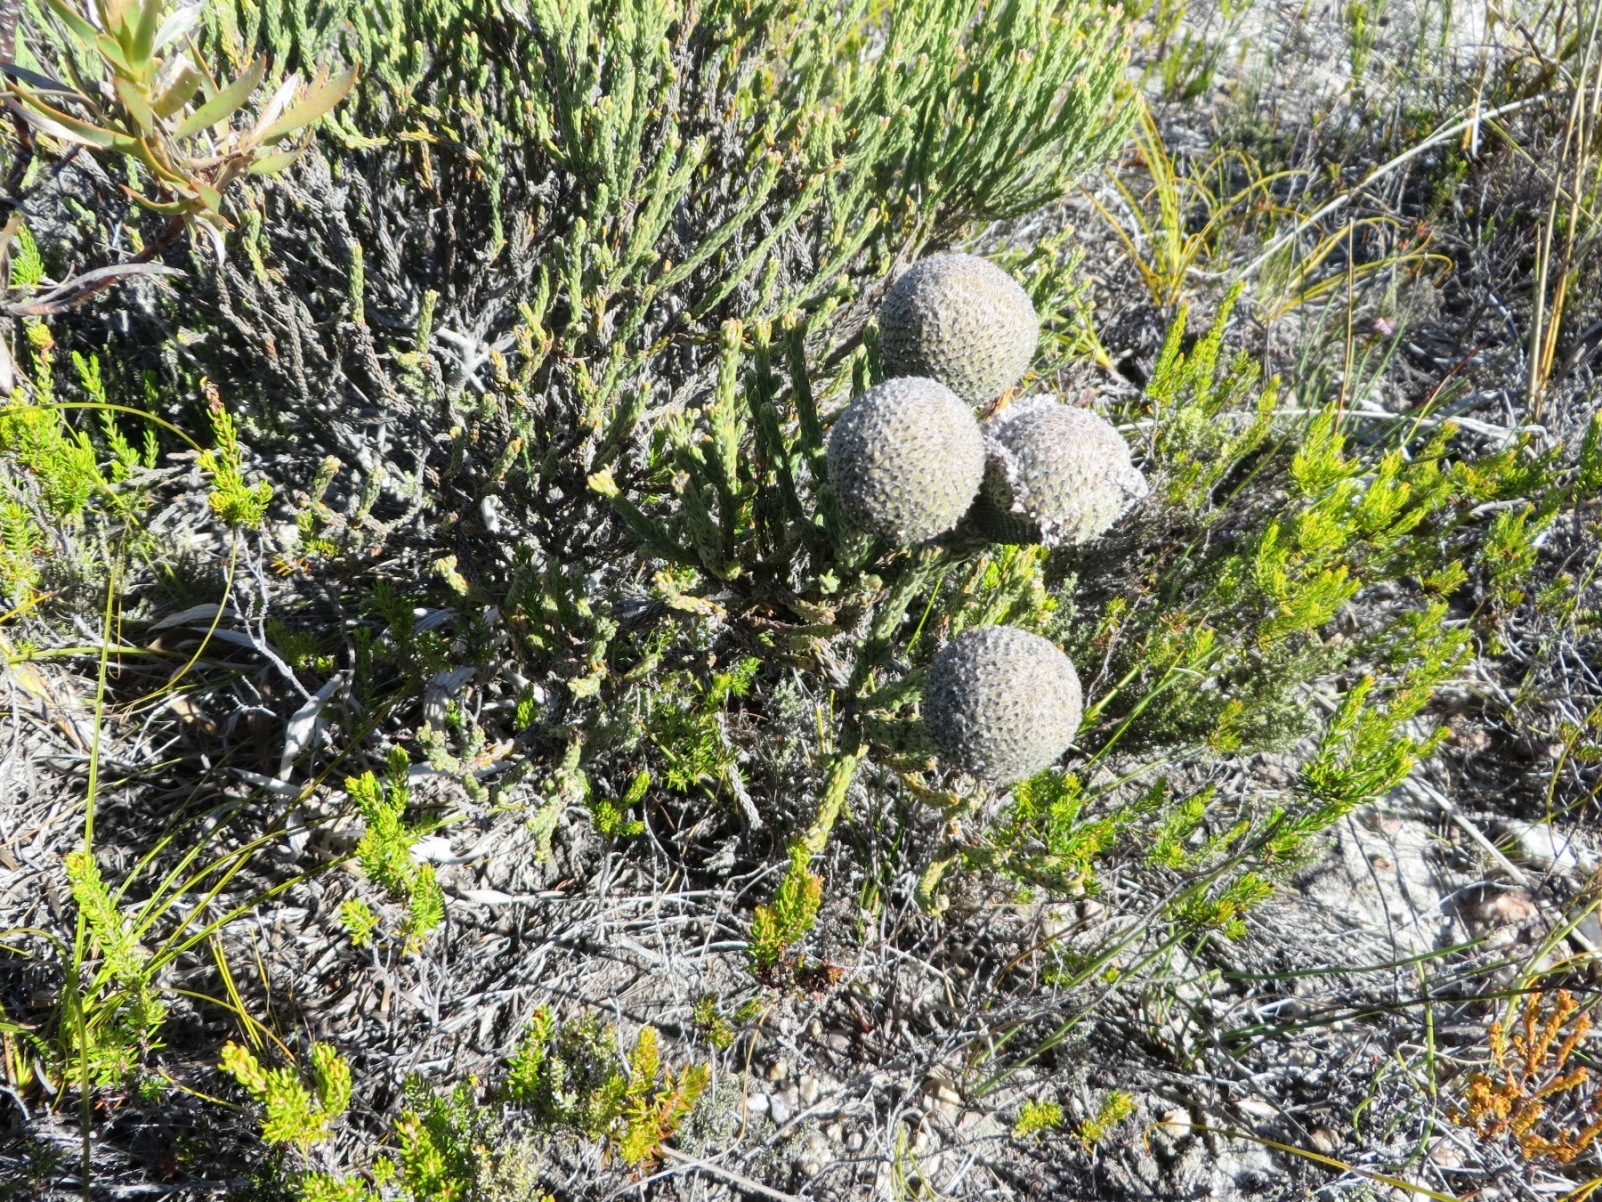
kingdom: Plantae
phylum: Tracheophyta
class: Magnoliopsida
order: Bruniales
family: Bruniaceae
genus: Brunia
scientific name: Brunia laevis
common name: Silver brunia
